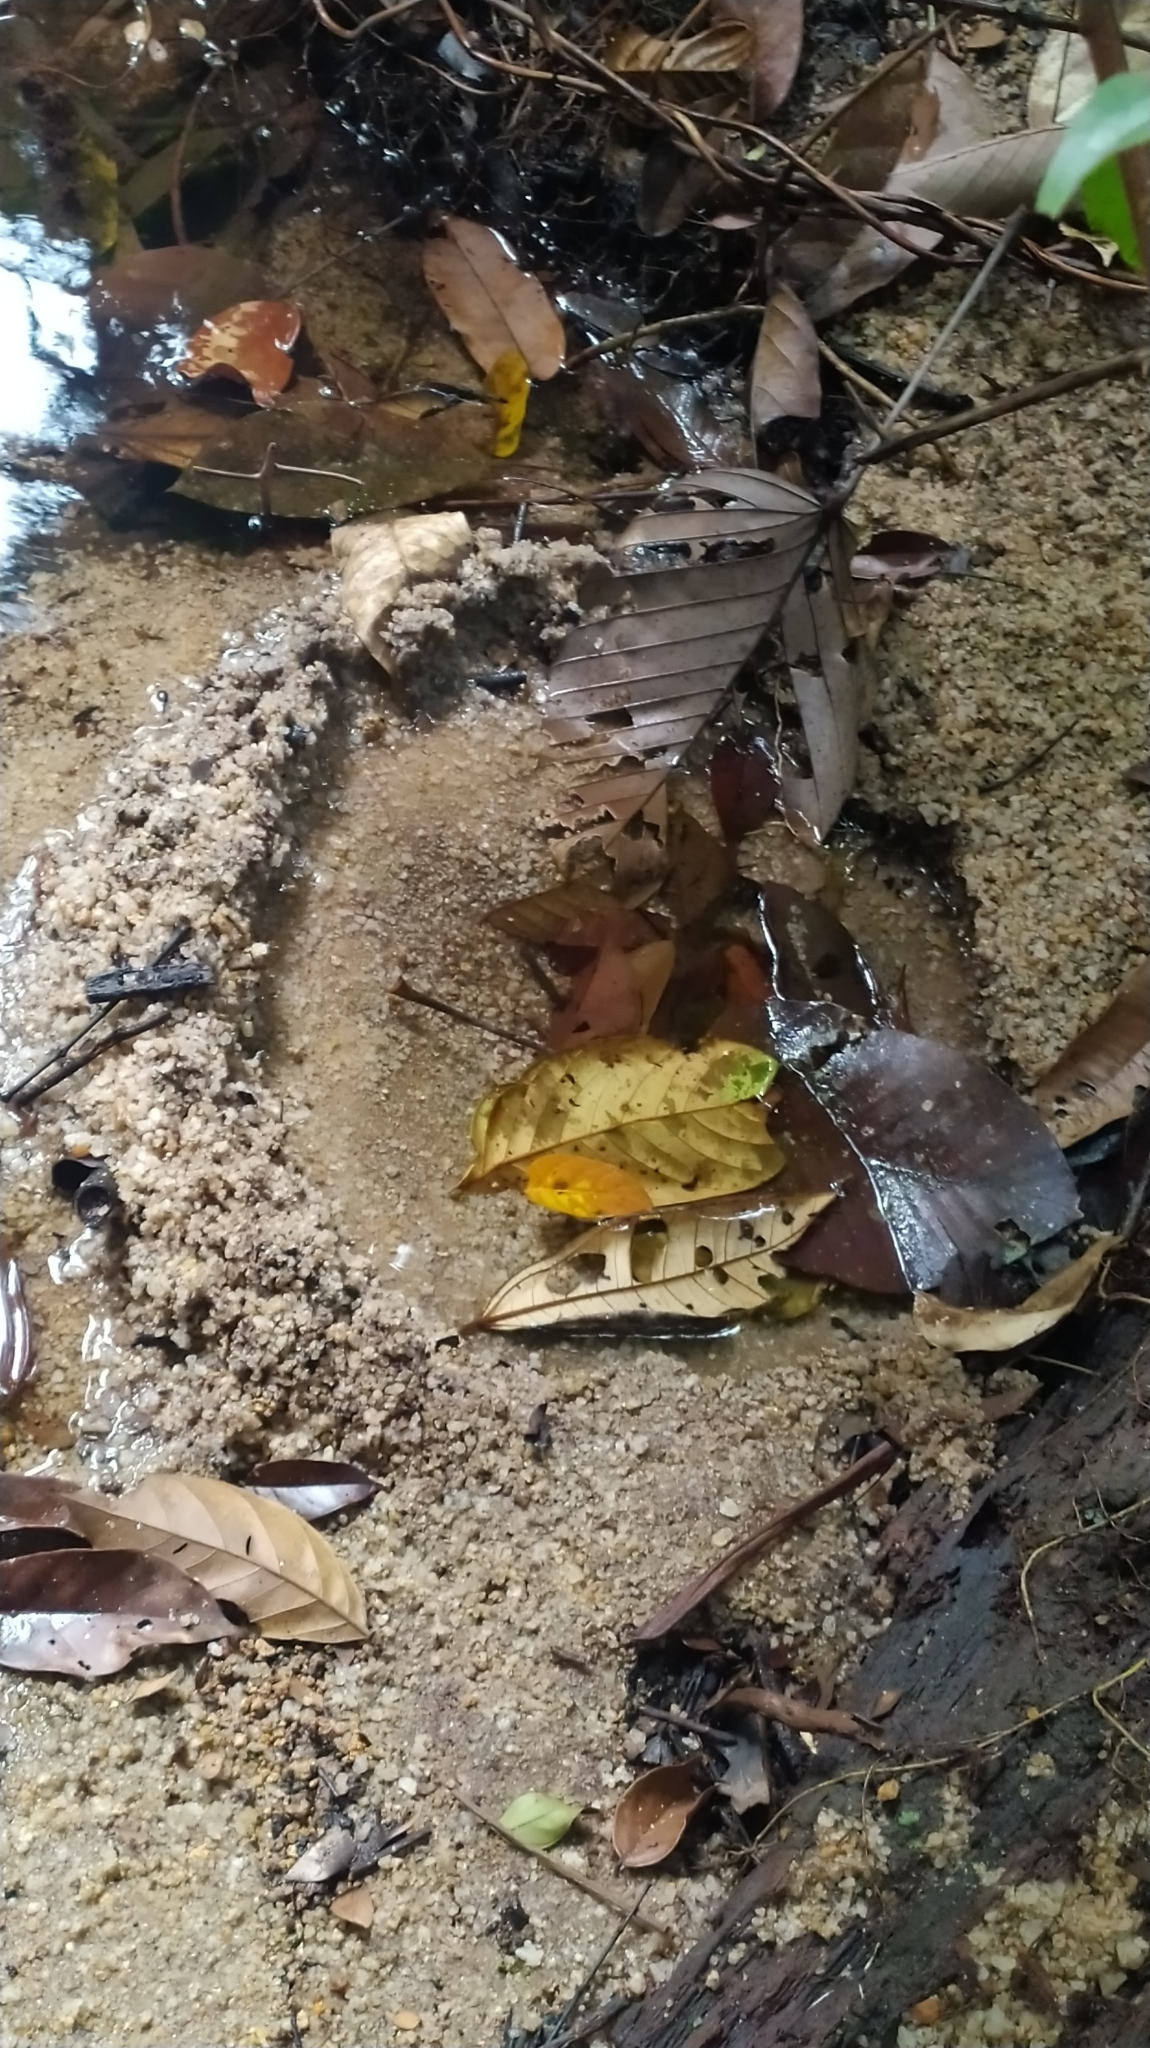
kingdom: Animalia
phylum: Chordata
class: Amphibia
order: Anura
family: Hylidae
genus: Boana
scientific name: Boana boans
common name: Giant gladiator treefrog
